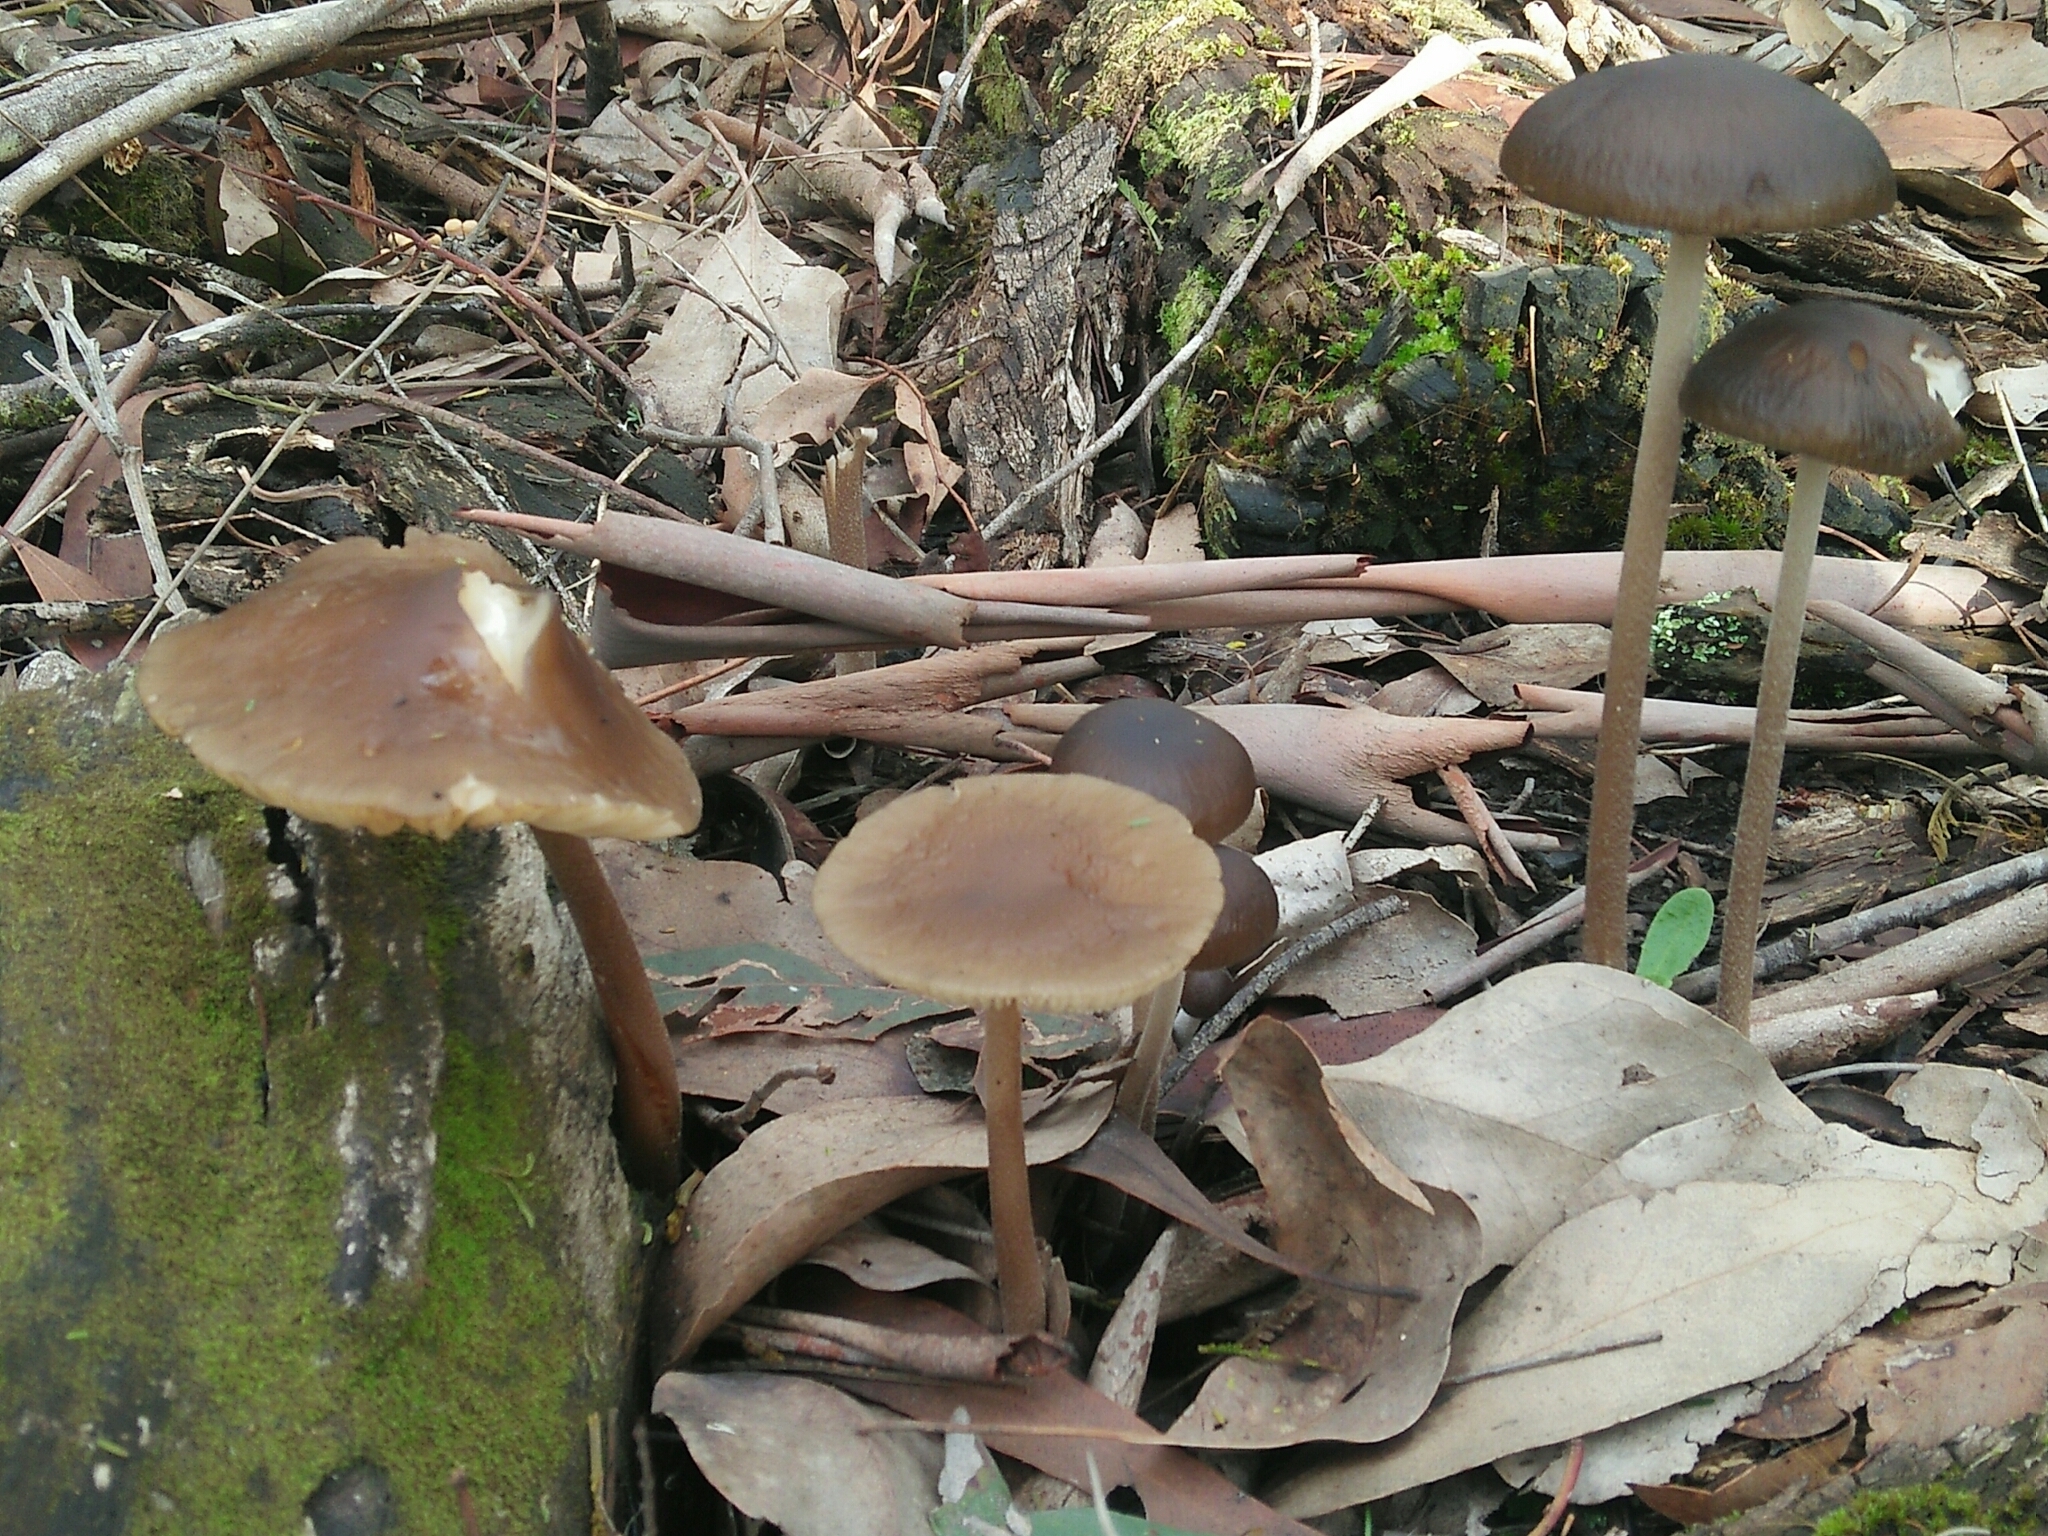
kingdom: Fungi
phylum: Basidiomycota
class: Agaricomycetes
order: Agaricales
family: Physalacriaceae
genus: Hymenopellis
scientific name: Hymenopellis gigaspora
